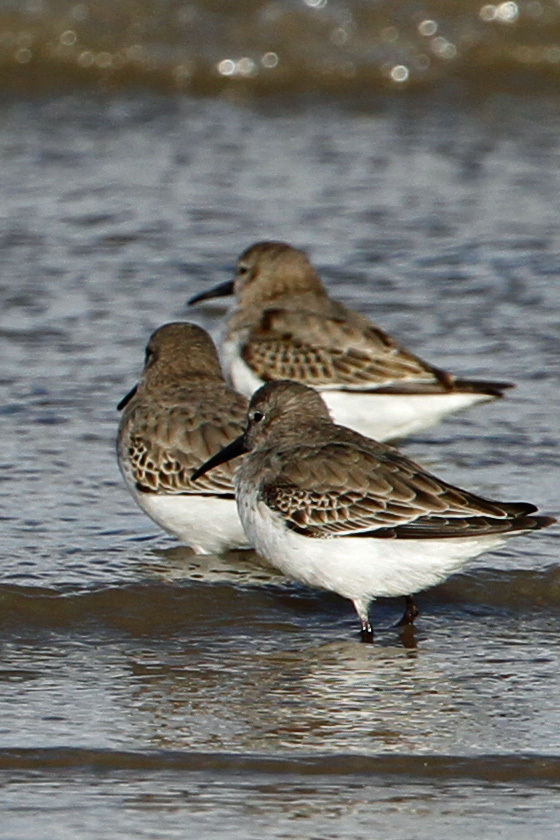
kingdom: Animalia
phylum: Chordata
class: Aves
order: Charadriiformes
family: Scolopacidae
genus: Calidris
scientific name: Calidris alpina
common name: Dunlin
